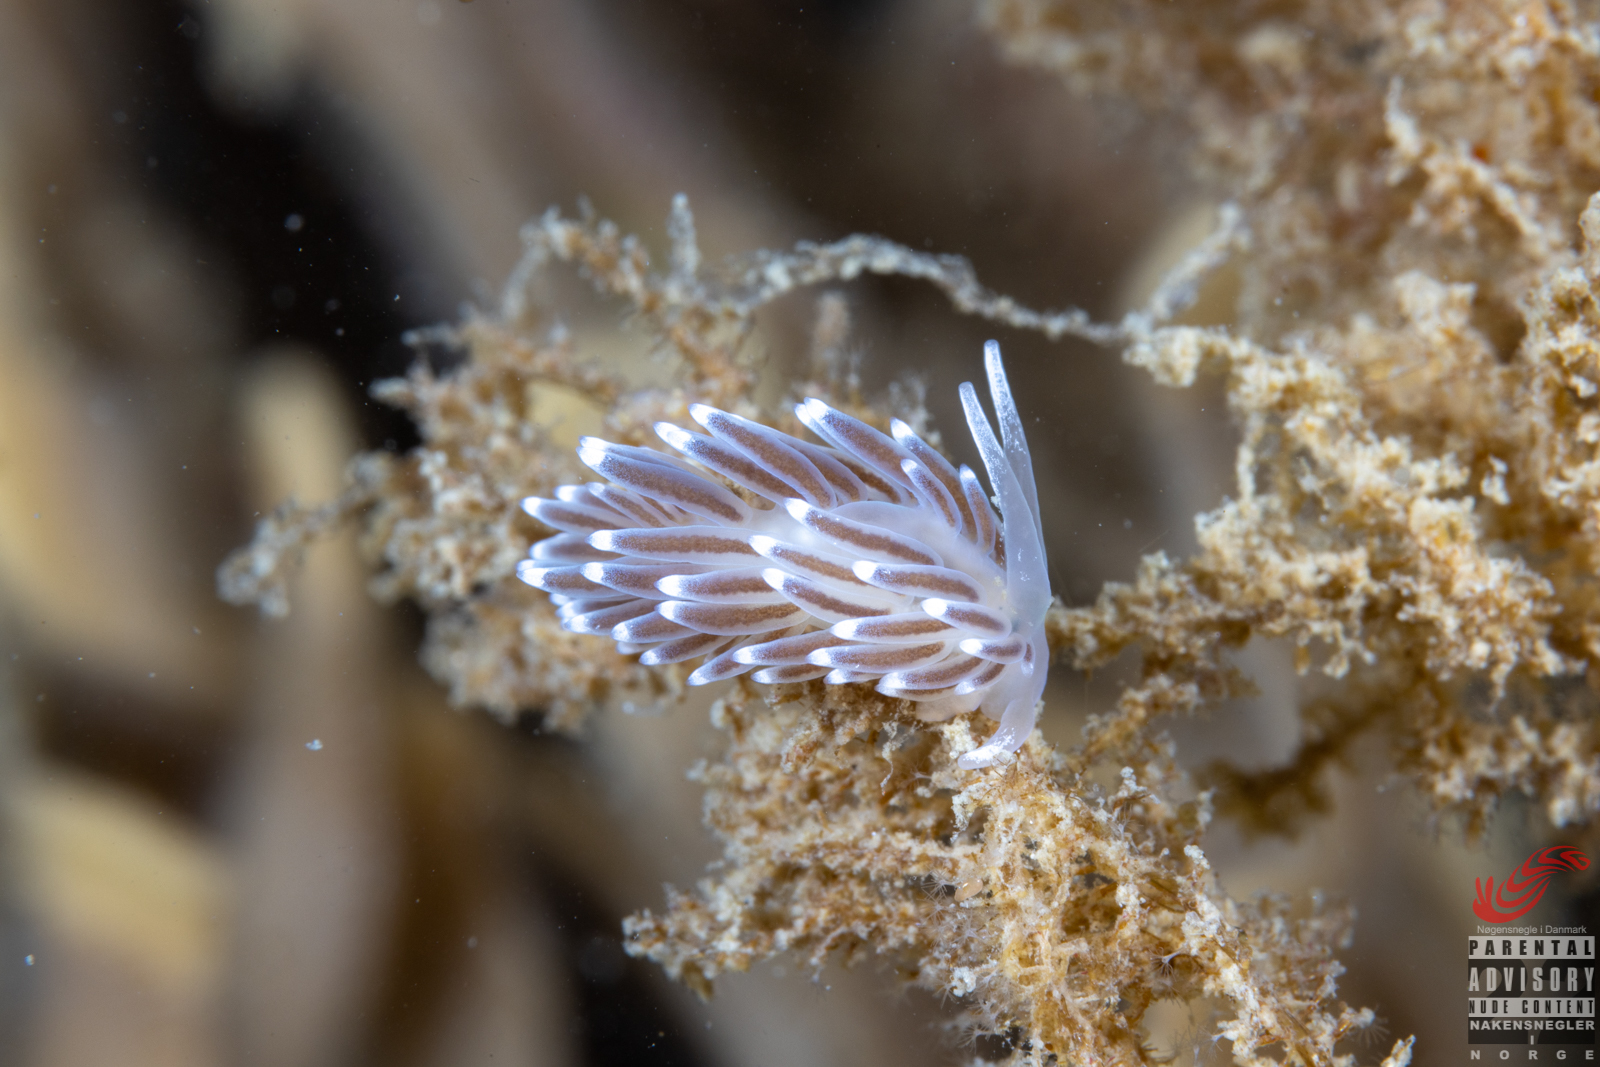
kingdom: Animalia
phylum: Mollusca
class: Gastropoda
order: Nudibranchia
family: Cuthonellidae
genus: Cuthonella
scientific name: Cuthonella concinna
